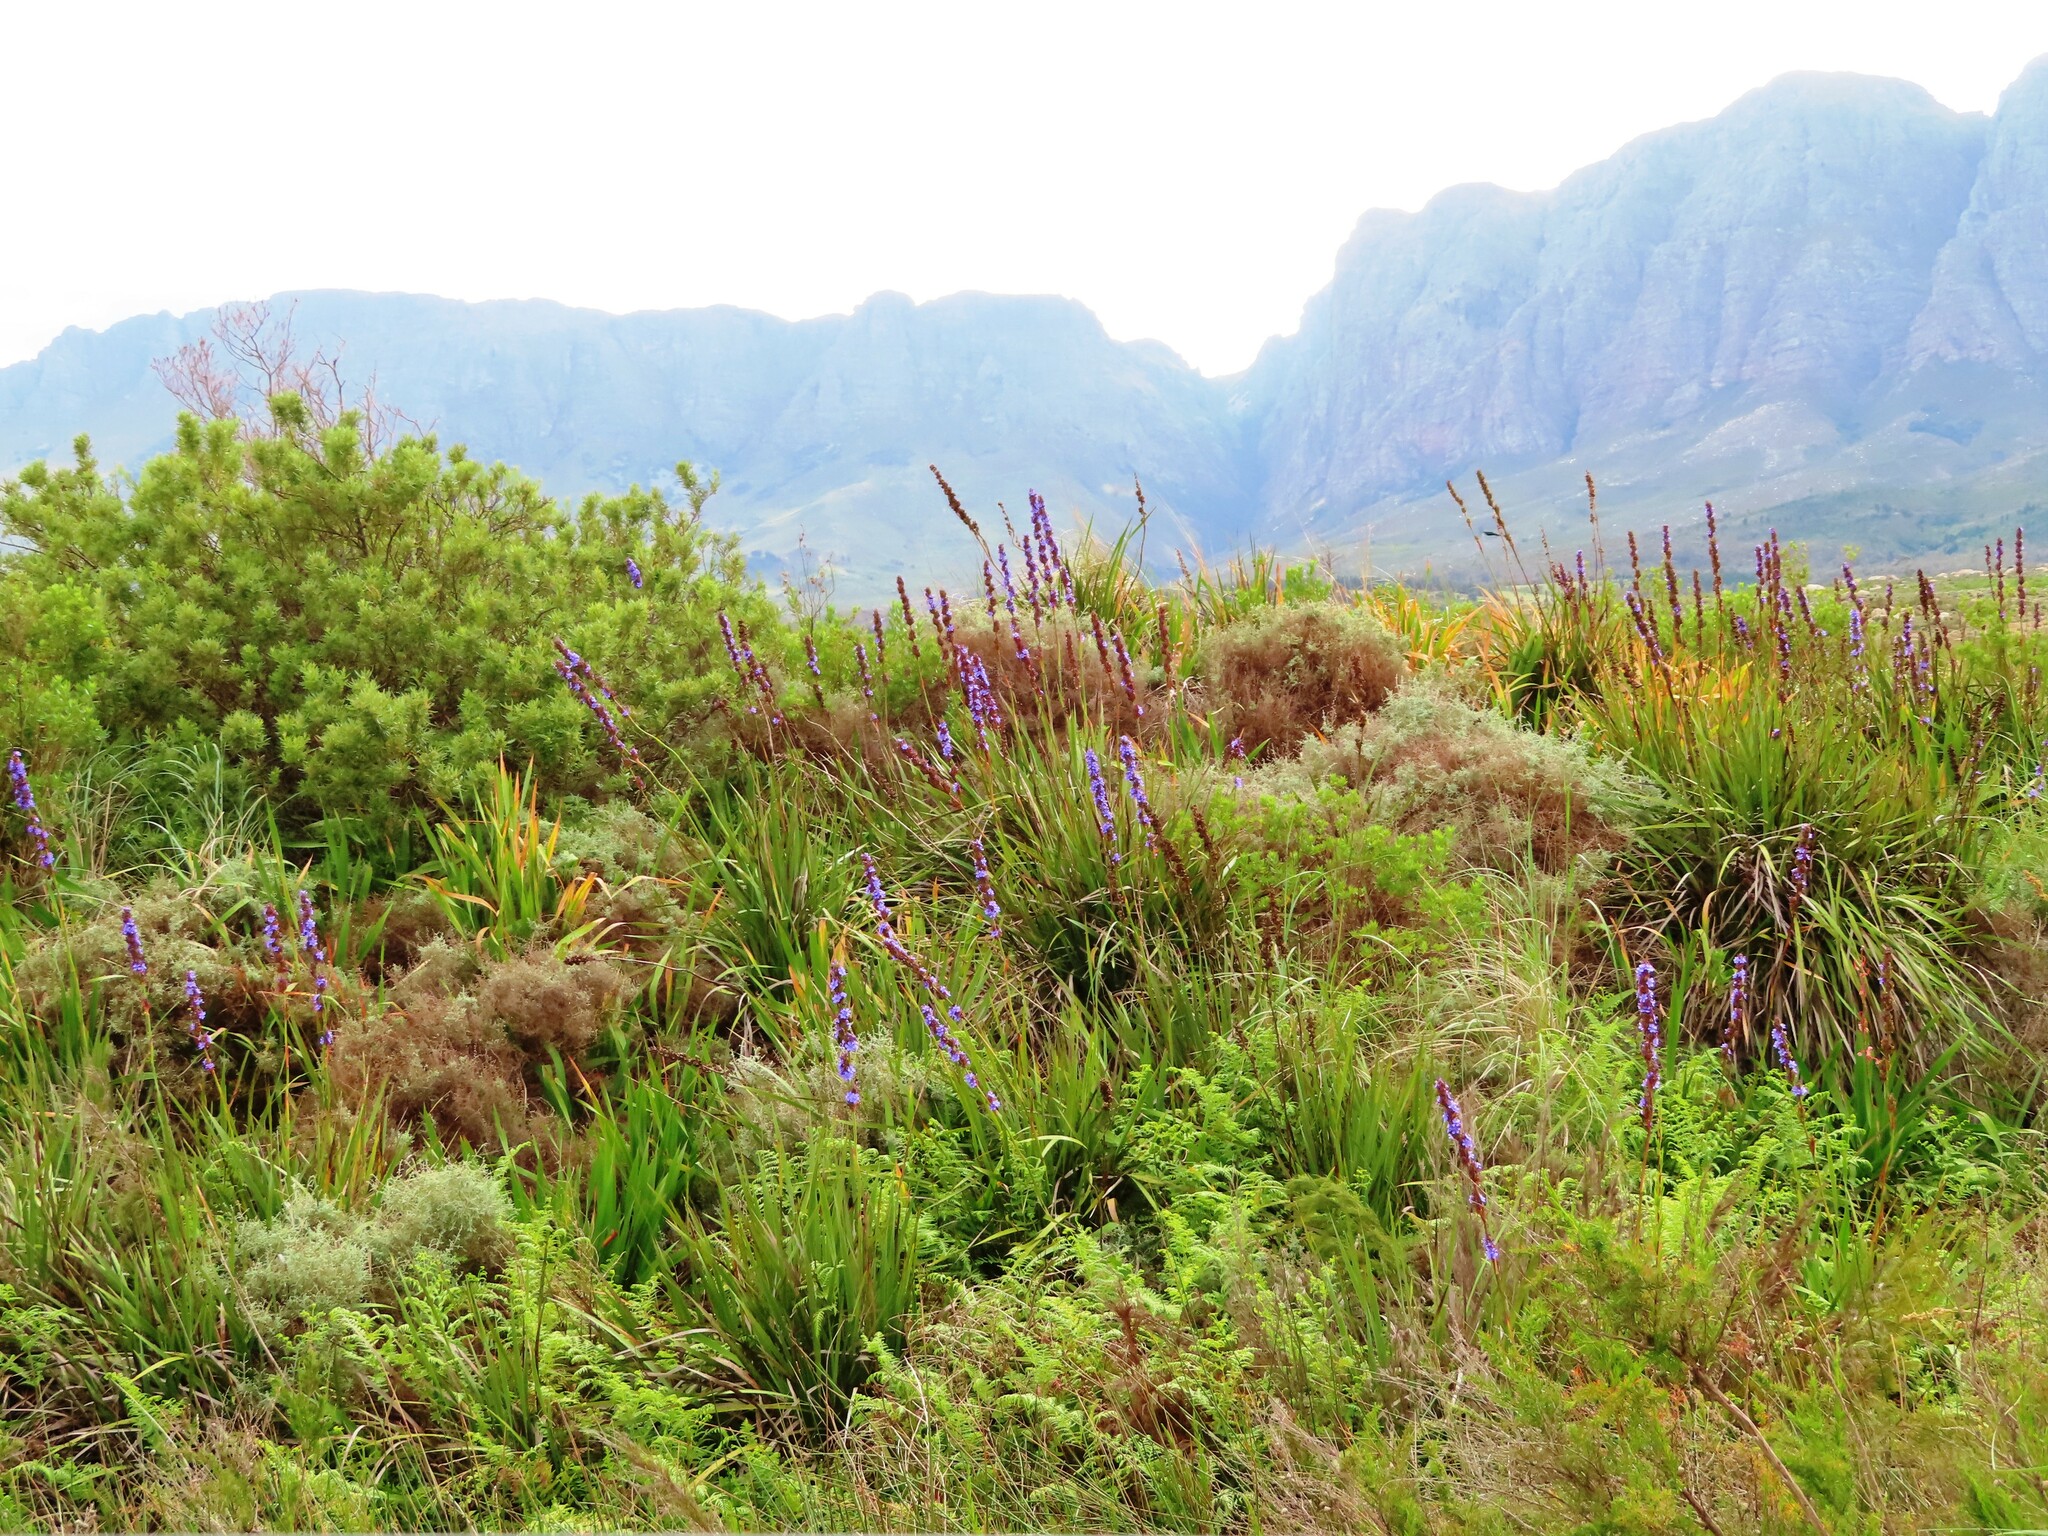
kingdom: Plantae
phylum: Tracheophyta
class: Liliopsida
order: Asparagales
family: Iridaceae
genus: Aristea
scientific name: Aristea capitata
